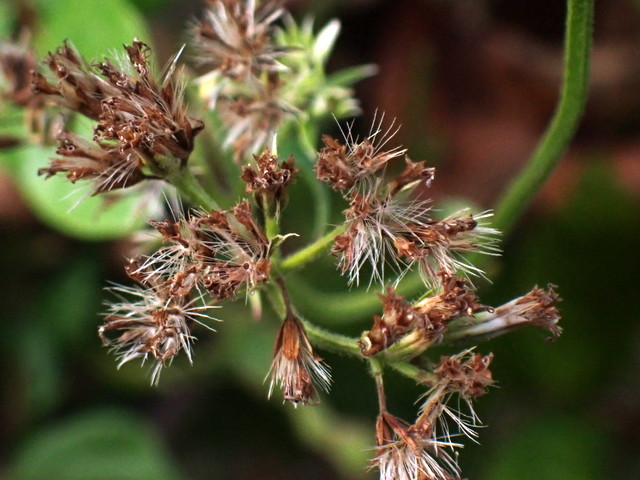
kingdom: Plantae
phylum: Tracheophyta
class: Magnoliopsida
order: Asterales
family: Asteraceae
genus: Mikania
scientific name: Mikania scandens
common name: Climbing hempvine
